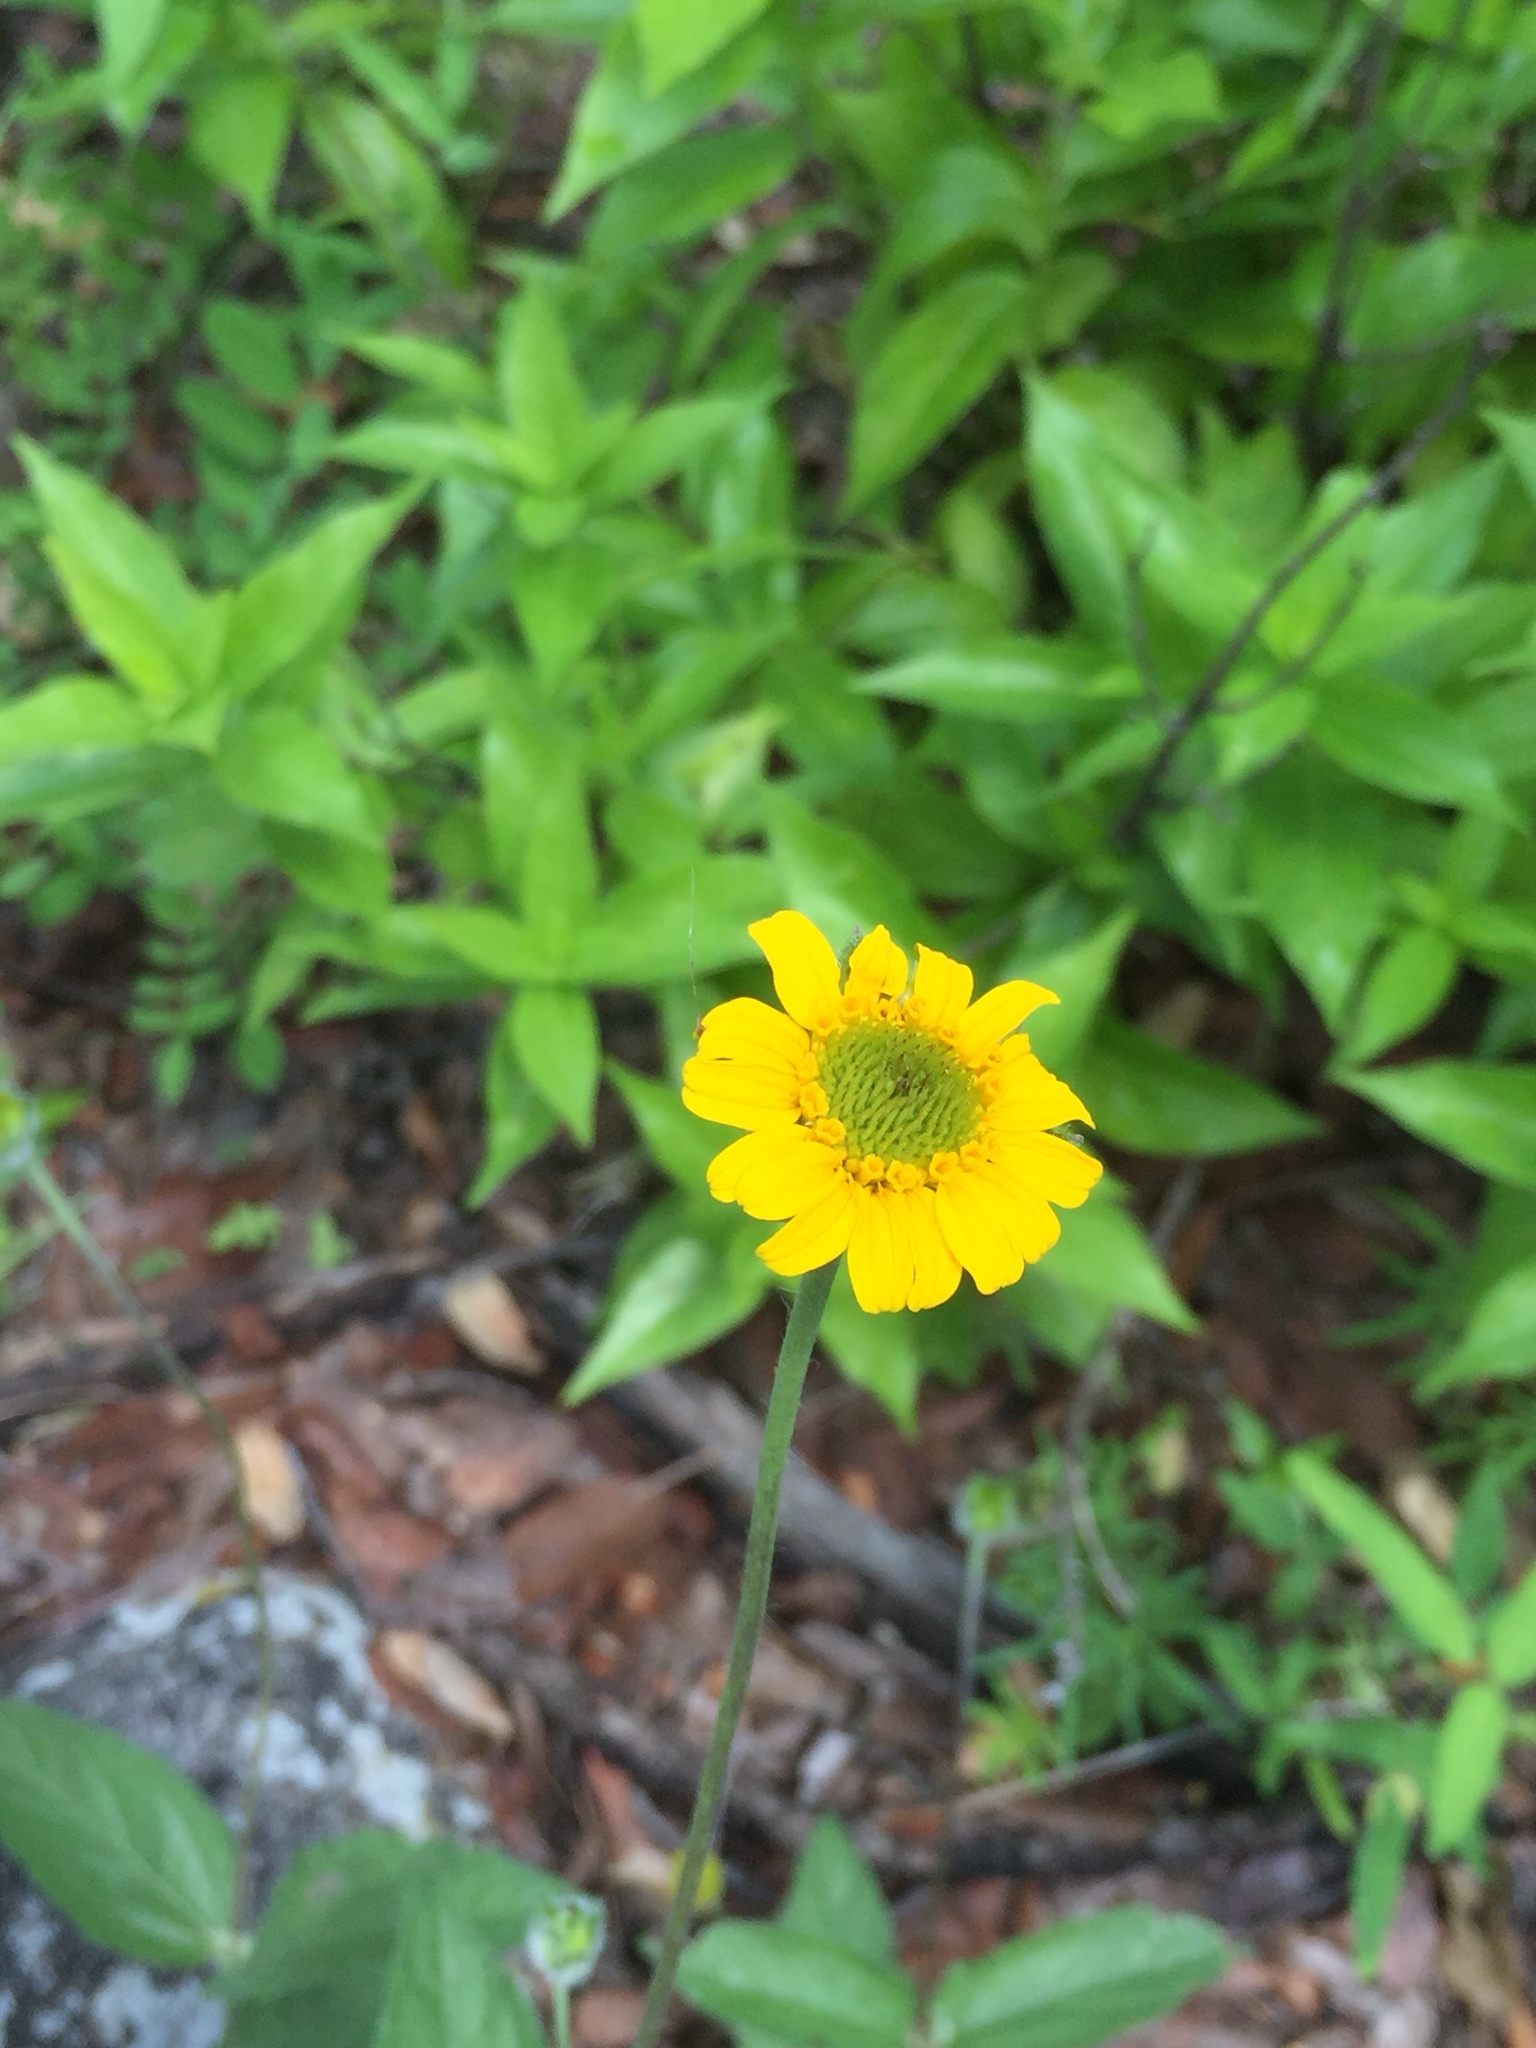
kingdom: Plantae
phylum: Tracheophyta
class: Magnoliopsida
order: Asterales
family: Asteraceae
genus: Lasianthaea
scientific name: Lasianthaea podocephala
